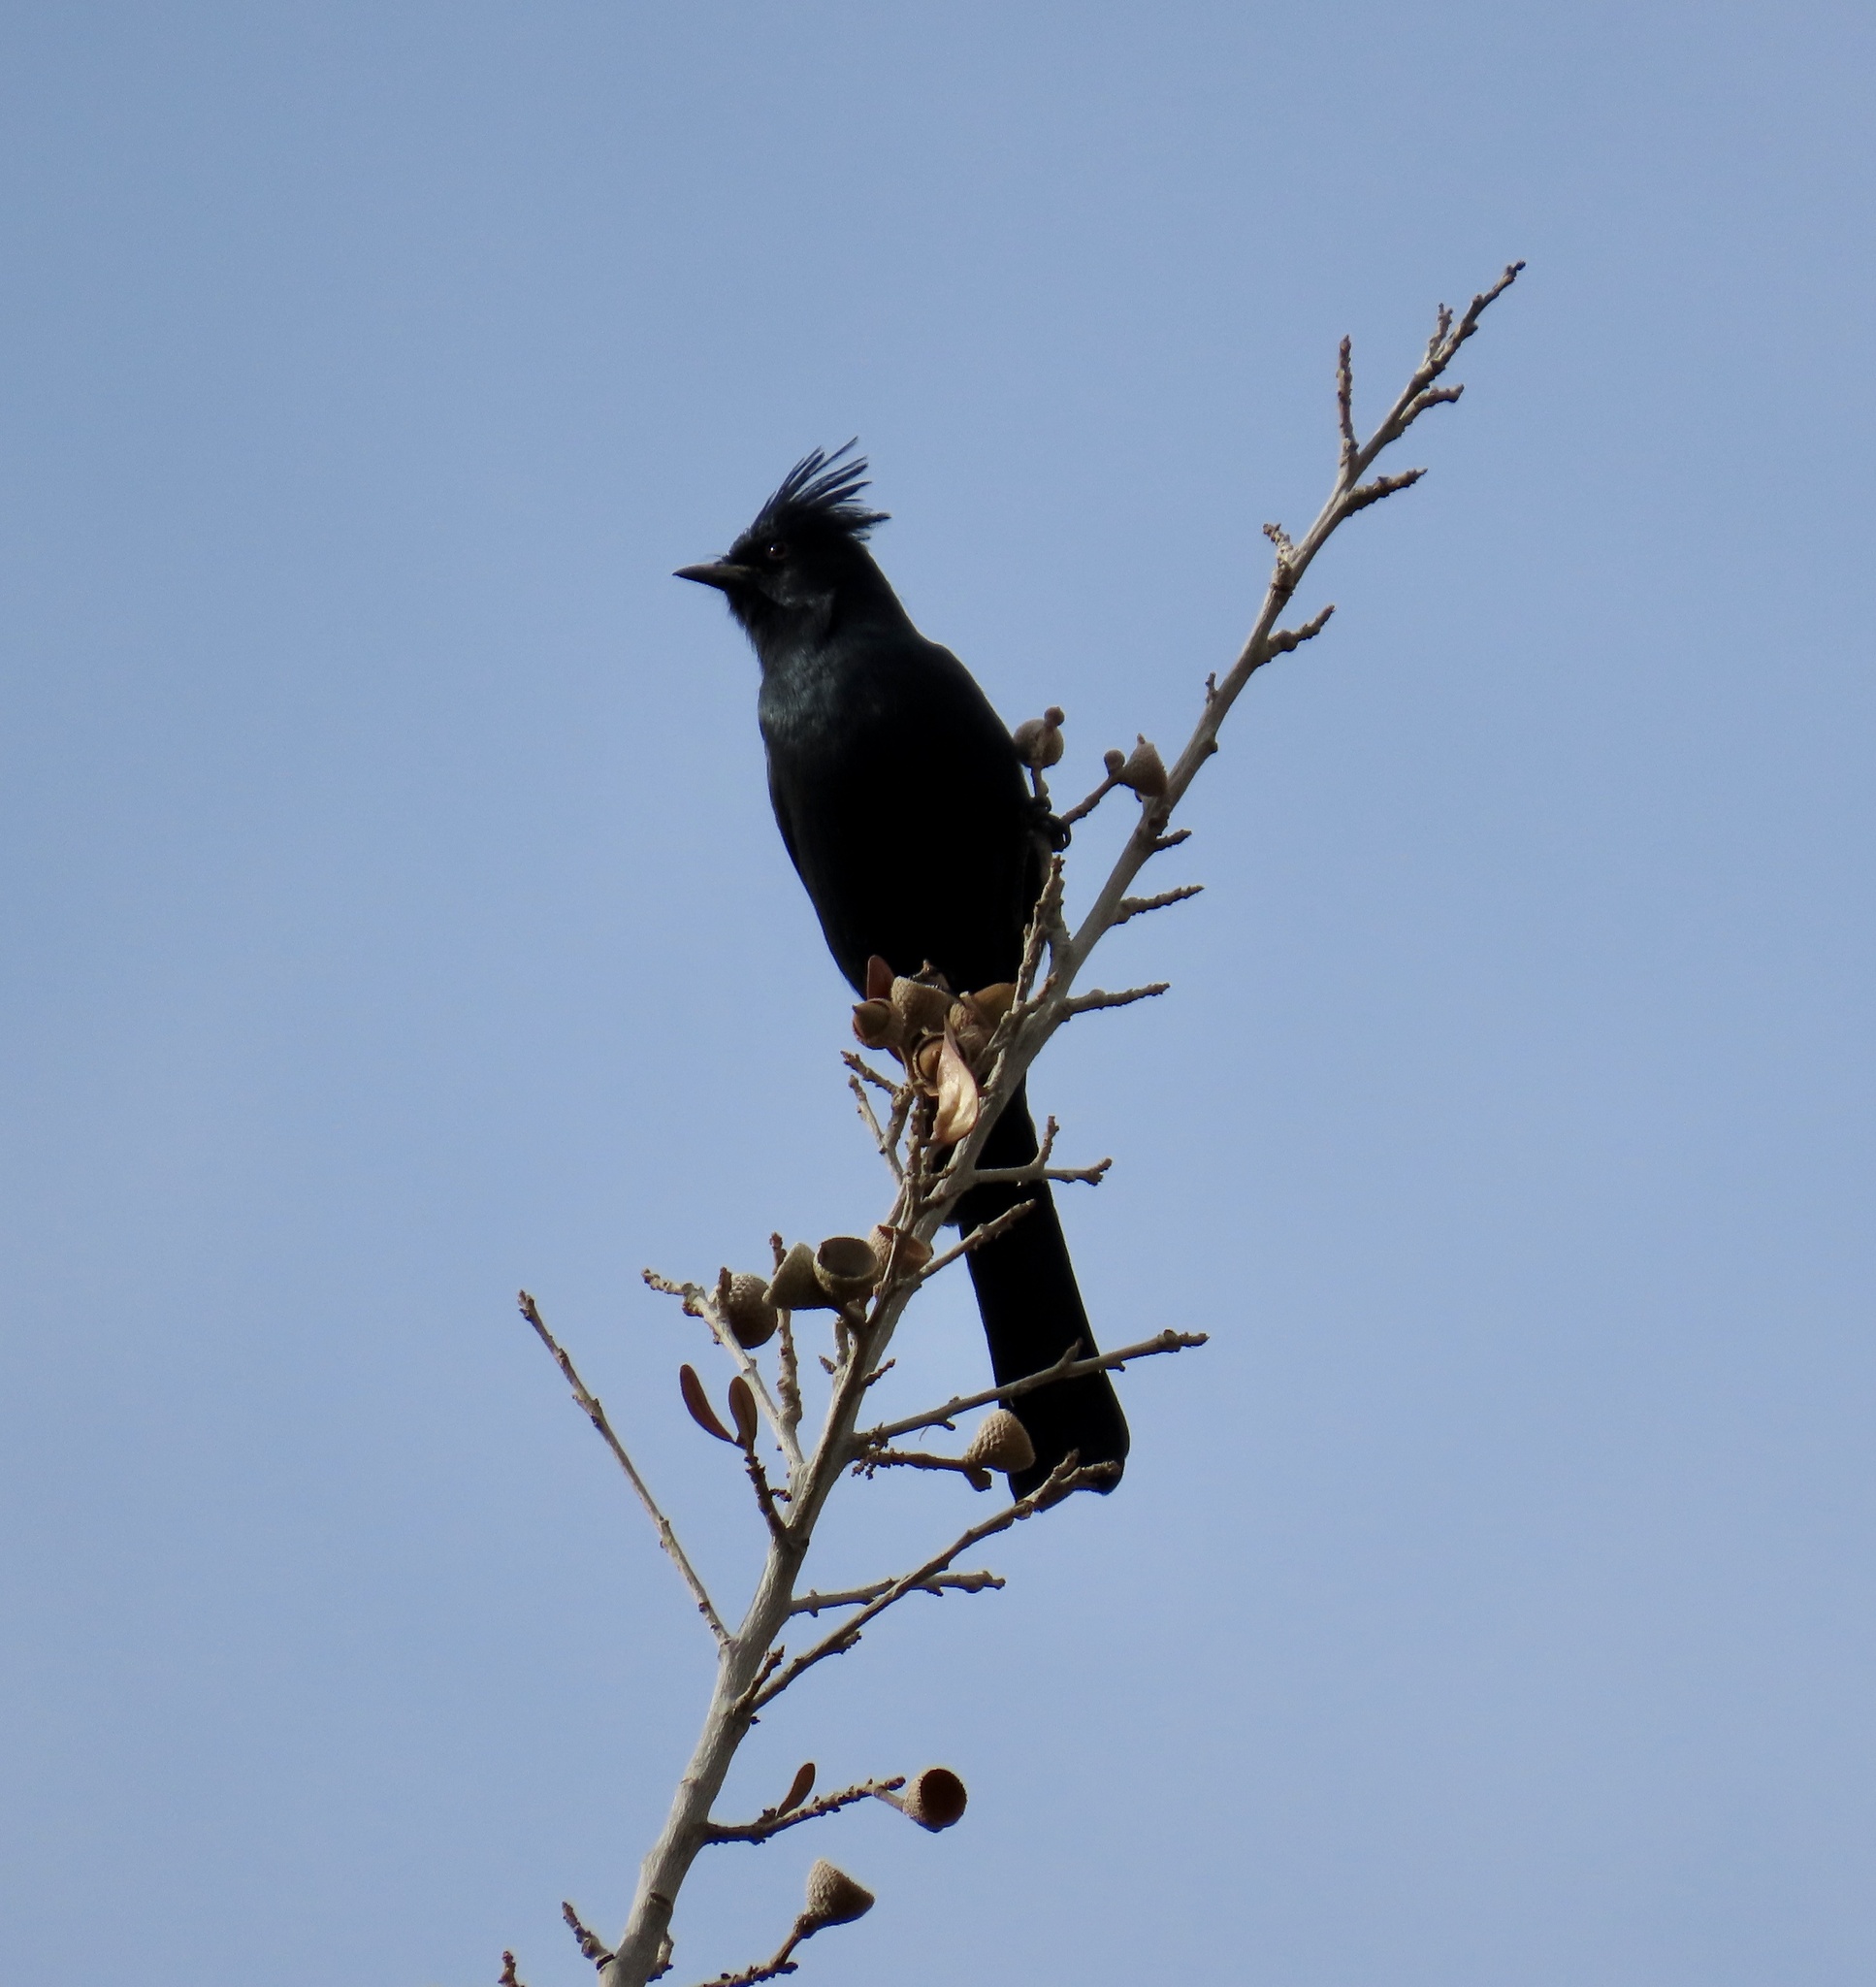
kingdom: Animalia
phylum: Chordata
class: Aves
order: Passeriformes
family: Ptilogonatidae
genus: Phainopepla
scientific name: Phainopepla nitens
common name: Phainopepla
